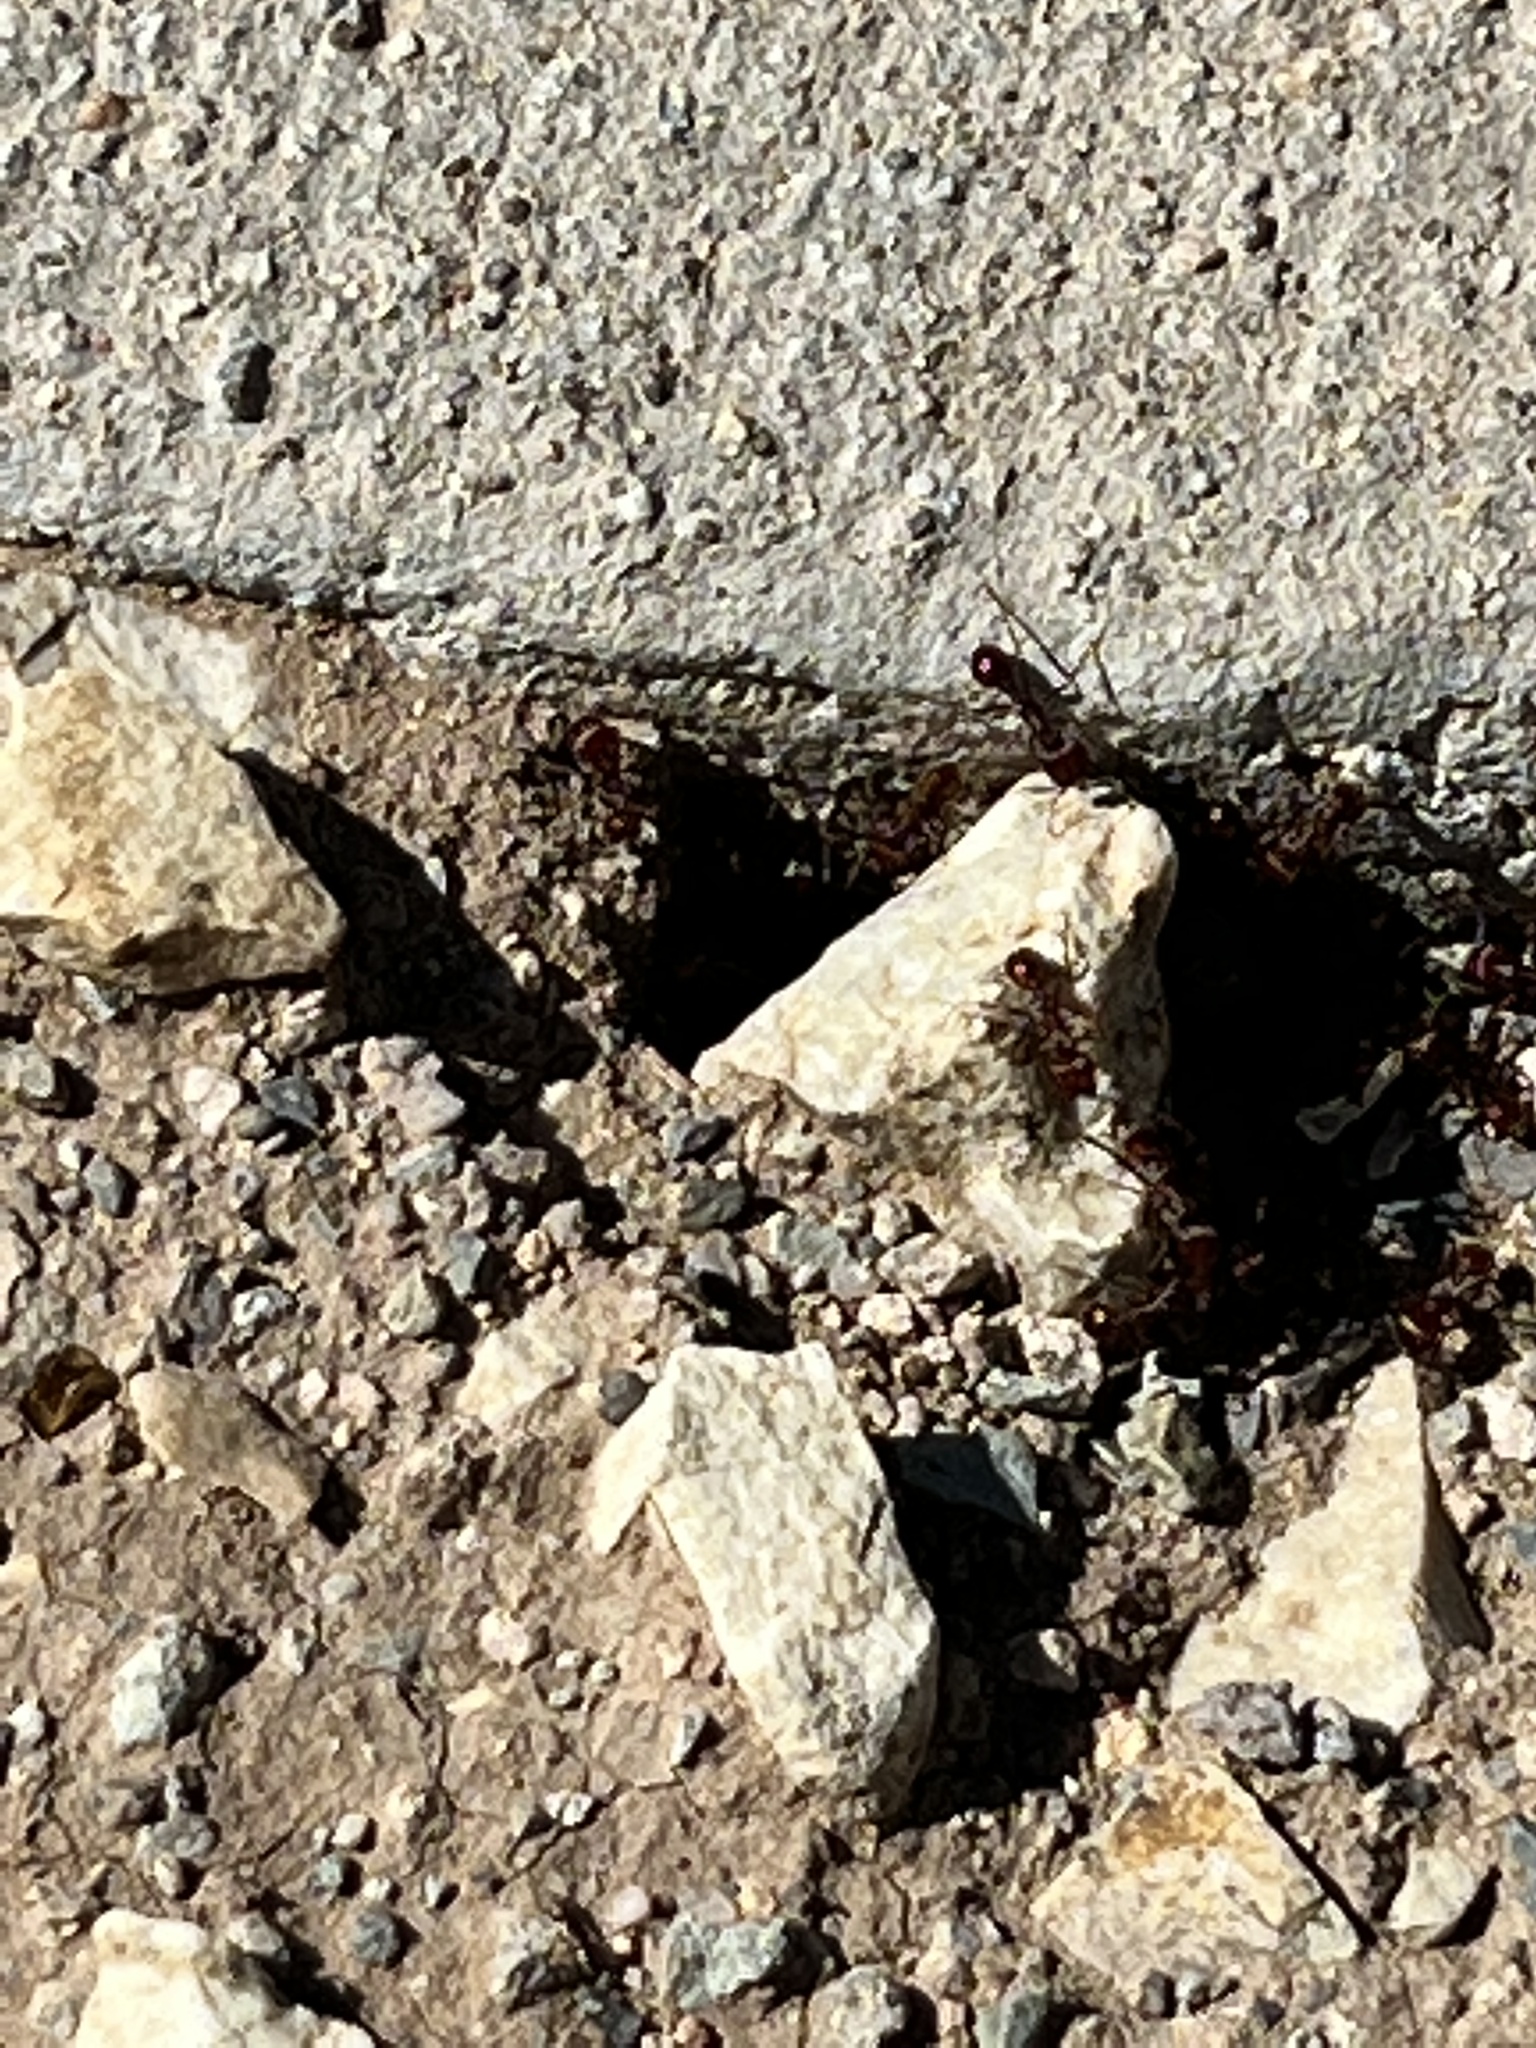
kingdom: Animalia
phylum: Arthropoda
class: Insecta
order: Hymenoptera
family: Formicidae
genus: Pogonomyrmex
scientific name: Pogonomyrmex rugosus
